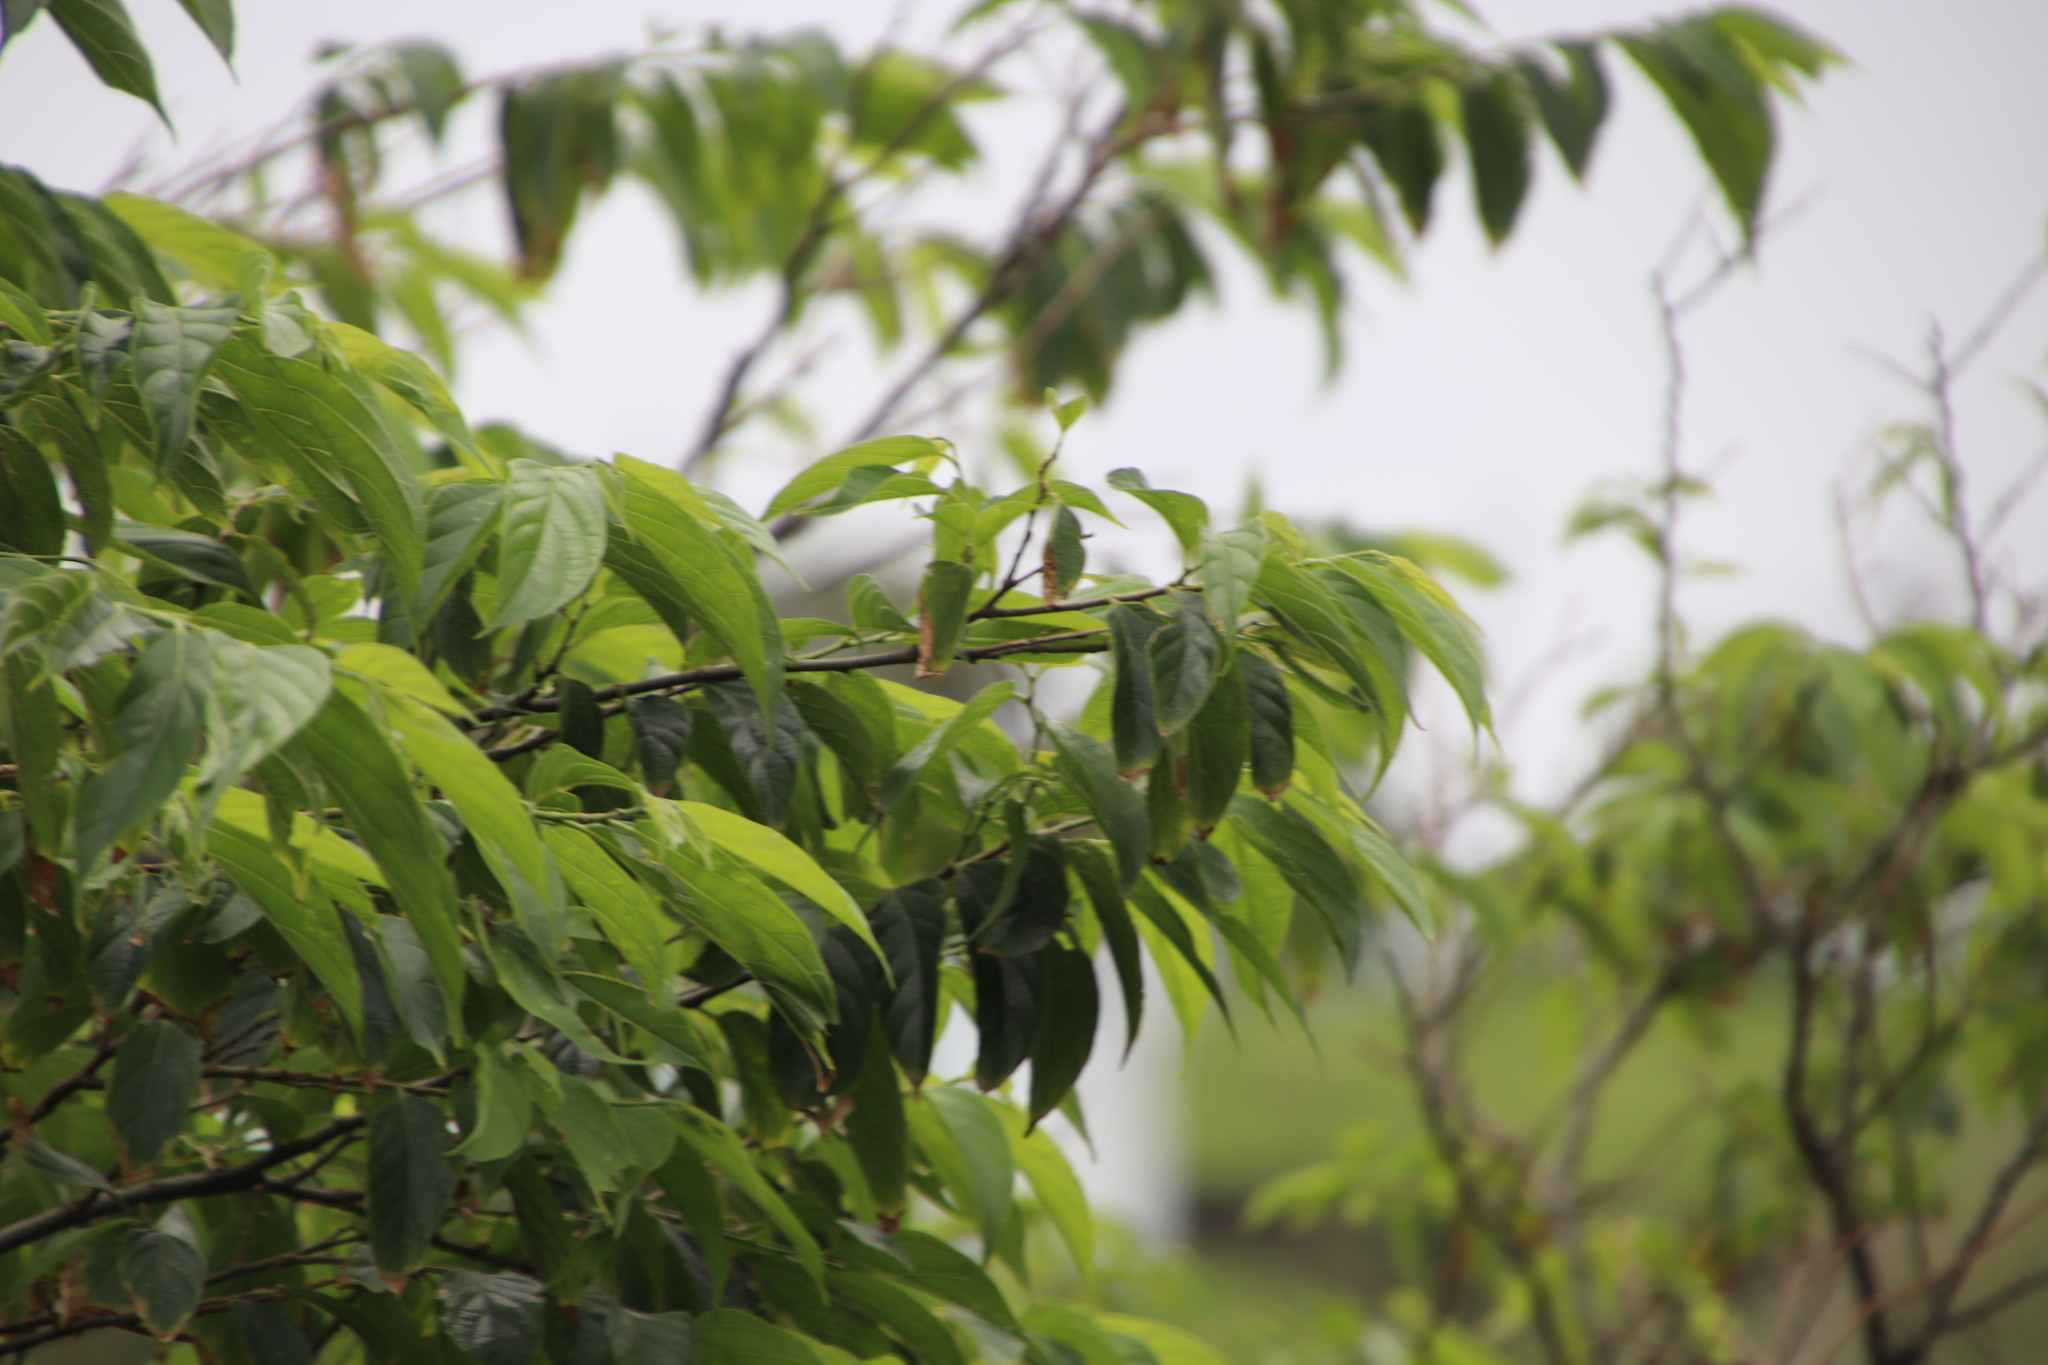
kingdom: Plantae
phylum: Tracheophyta
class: Magnoliopsida
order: Sapindales
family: Meliaceae
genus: Turraea
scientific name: Turraea floribunda
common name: Honeysuckle tree
